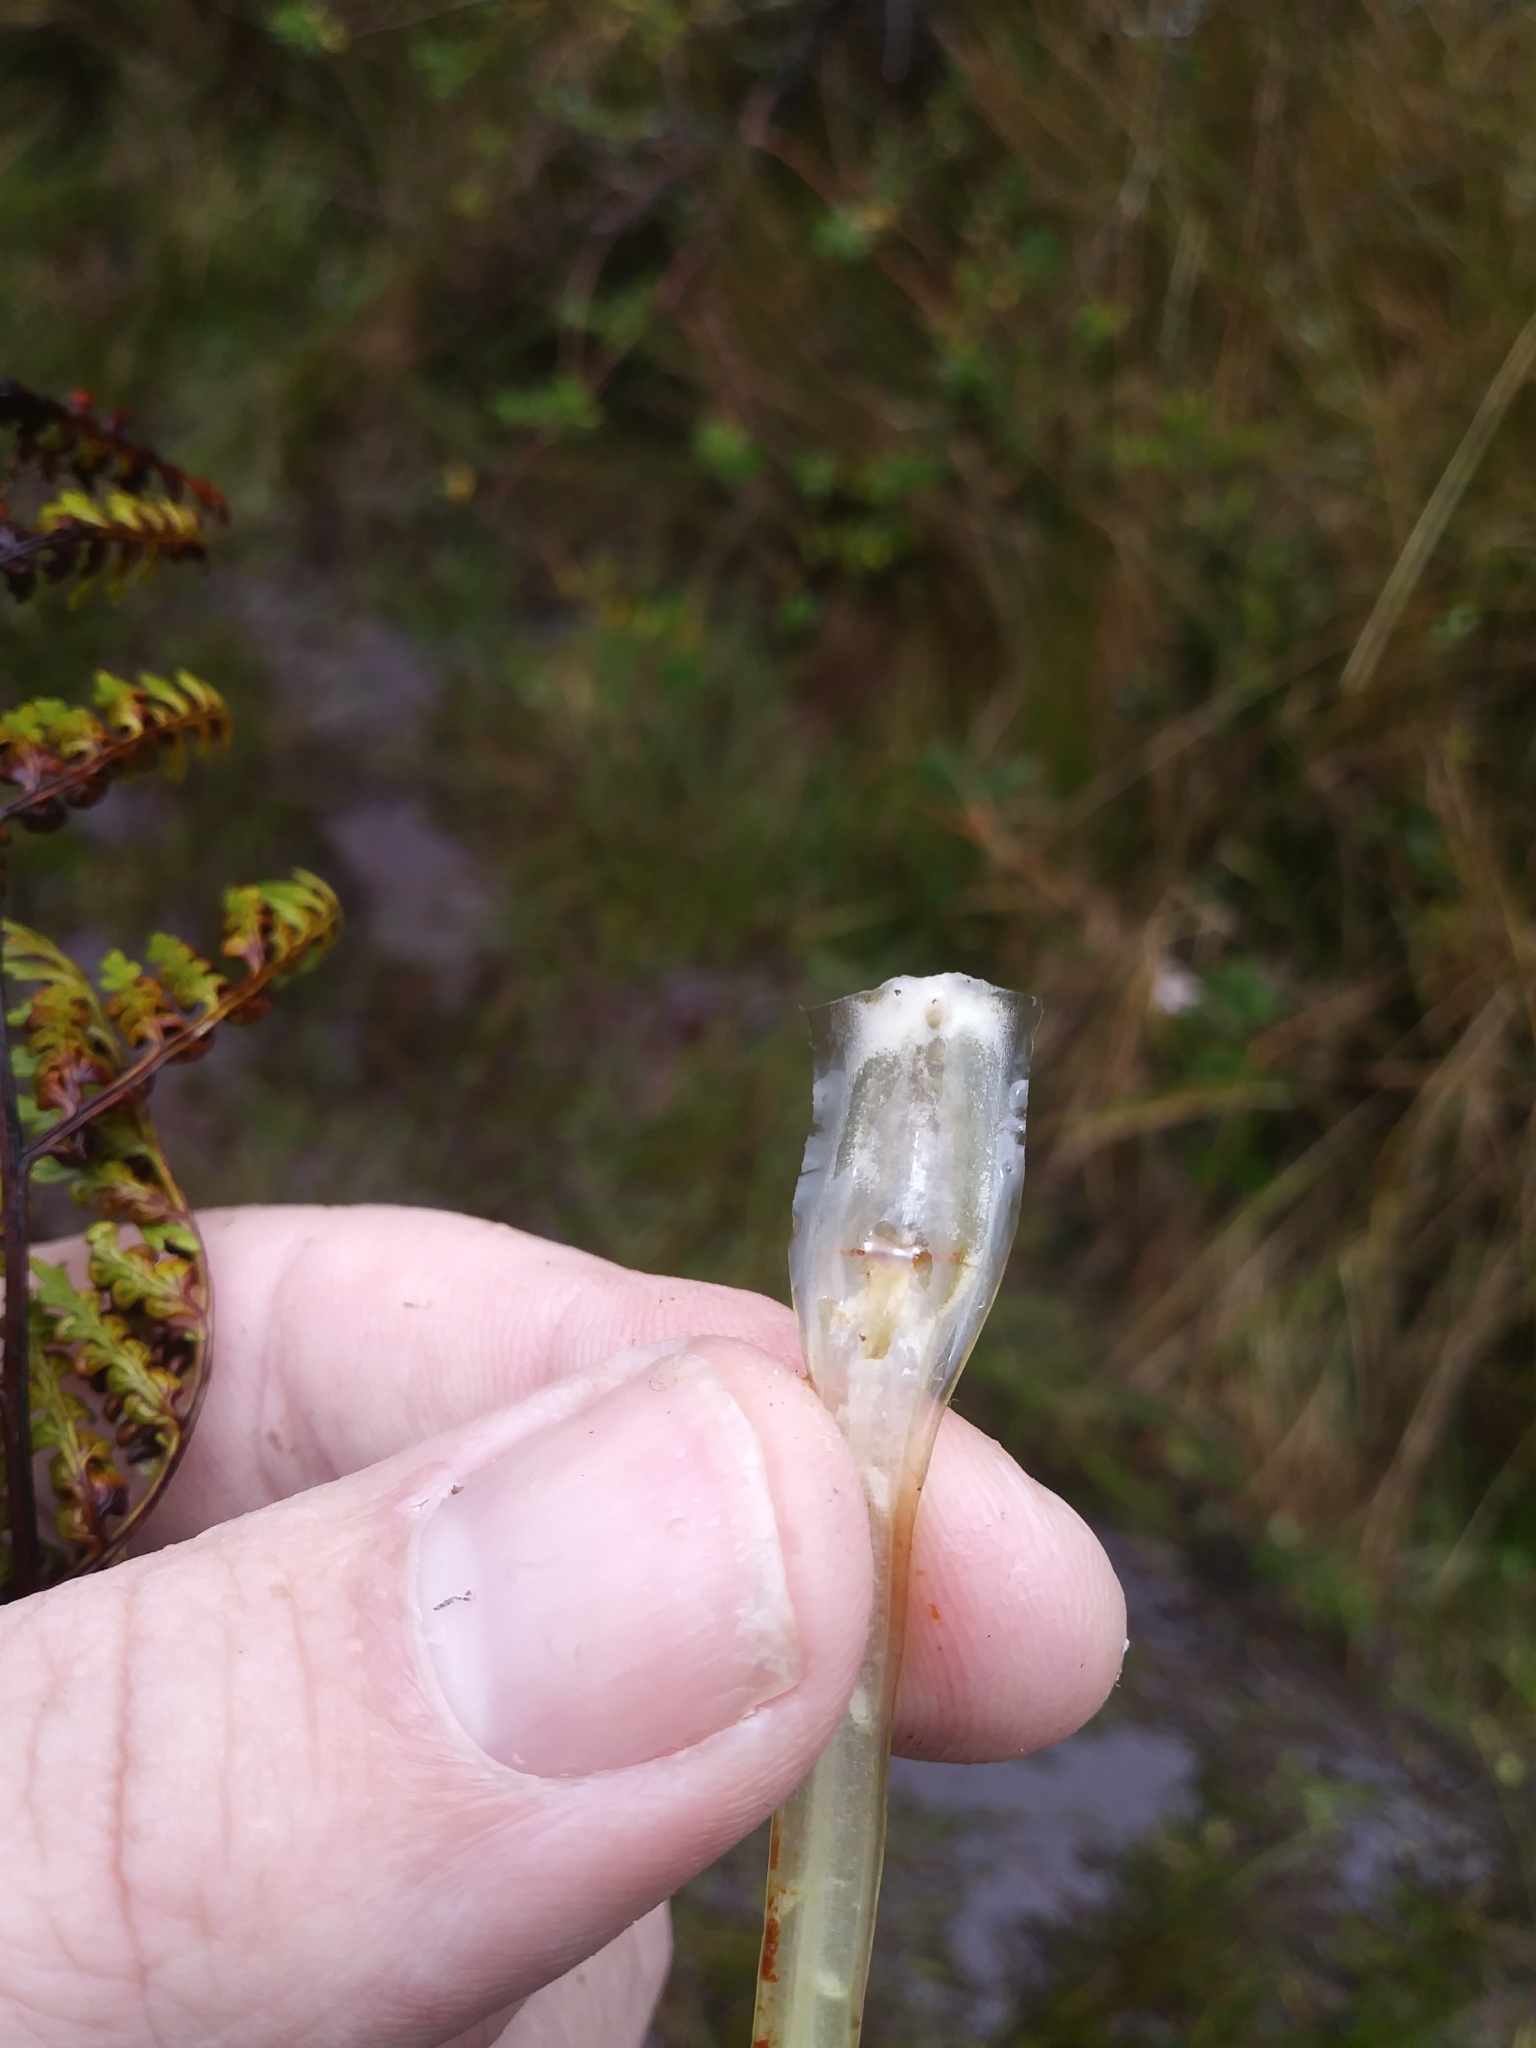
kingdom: Plantae
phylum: Tracheophyta
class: Lycopodiopsida
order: Isoetales
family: Isoetaceae
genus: Isoetes
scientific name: Isoetes storkii
